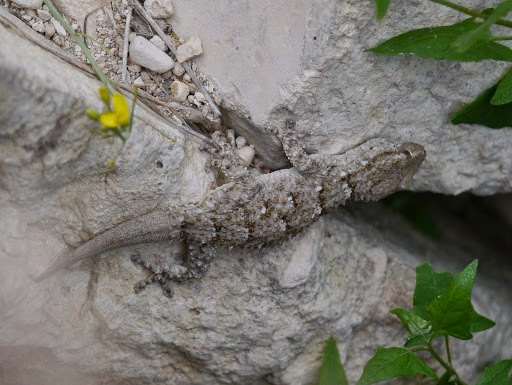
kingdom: Animalia
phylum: Chordata
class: Squamata
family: Phyllodactylidae
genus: Tarentola
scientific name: Tarentola mauritanica
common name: Moorish gecko
